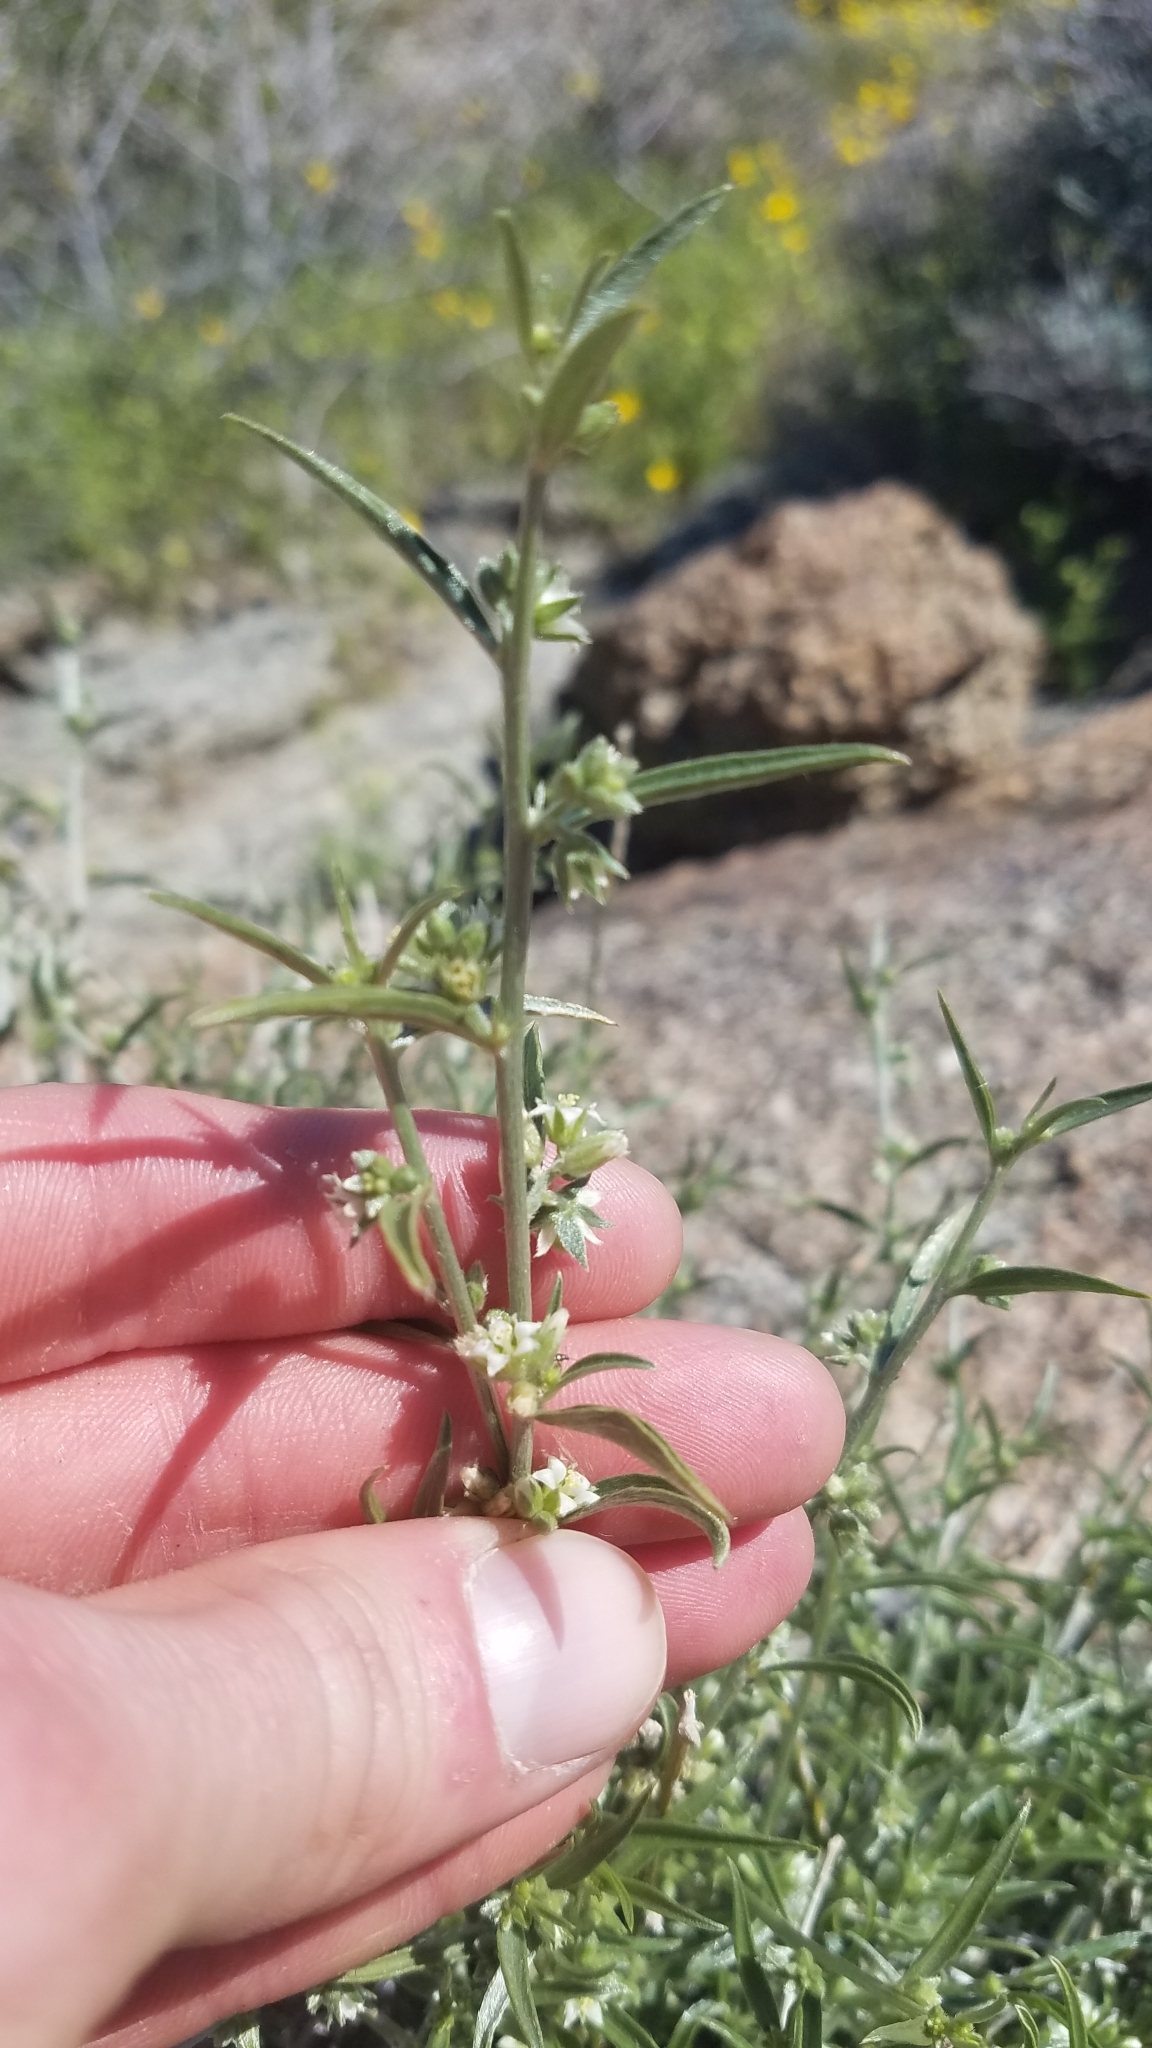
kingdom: Plantae
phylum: Tracheophyta
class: Magnoliopsida
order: Malpighiales
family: Euphorbiaceae
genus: Ditaxis
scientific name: Ditaxis lanceolata
